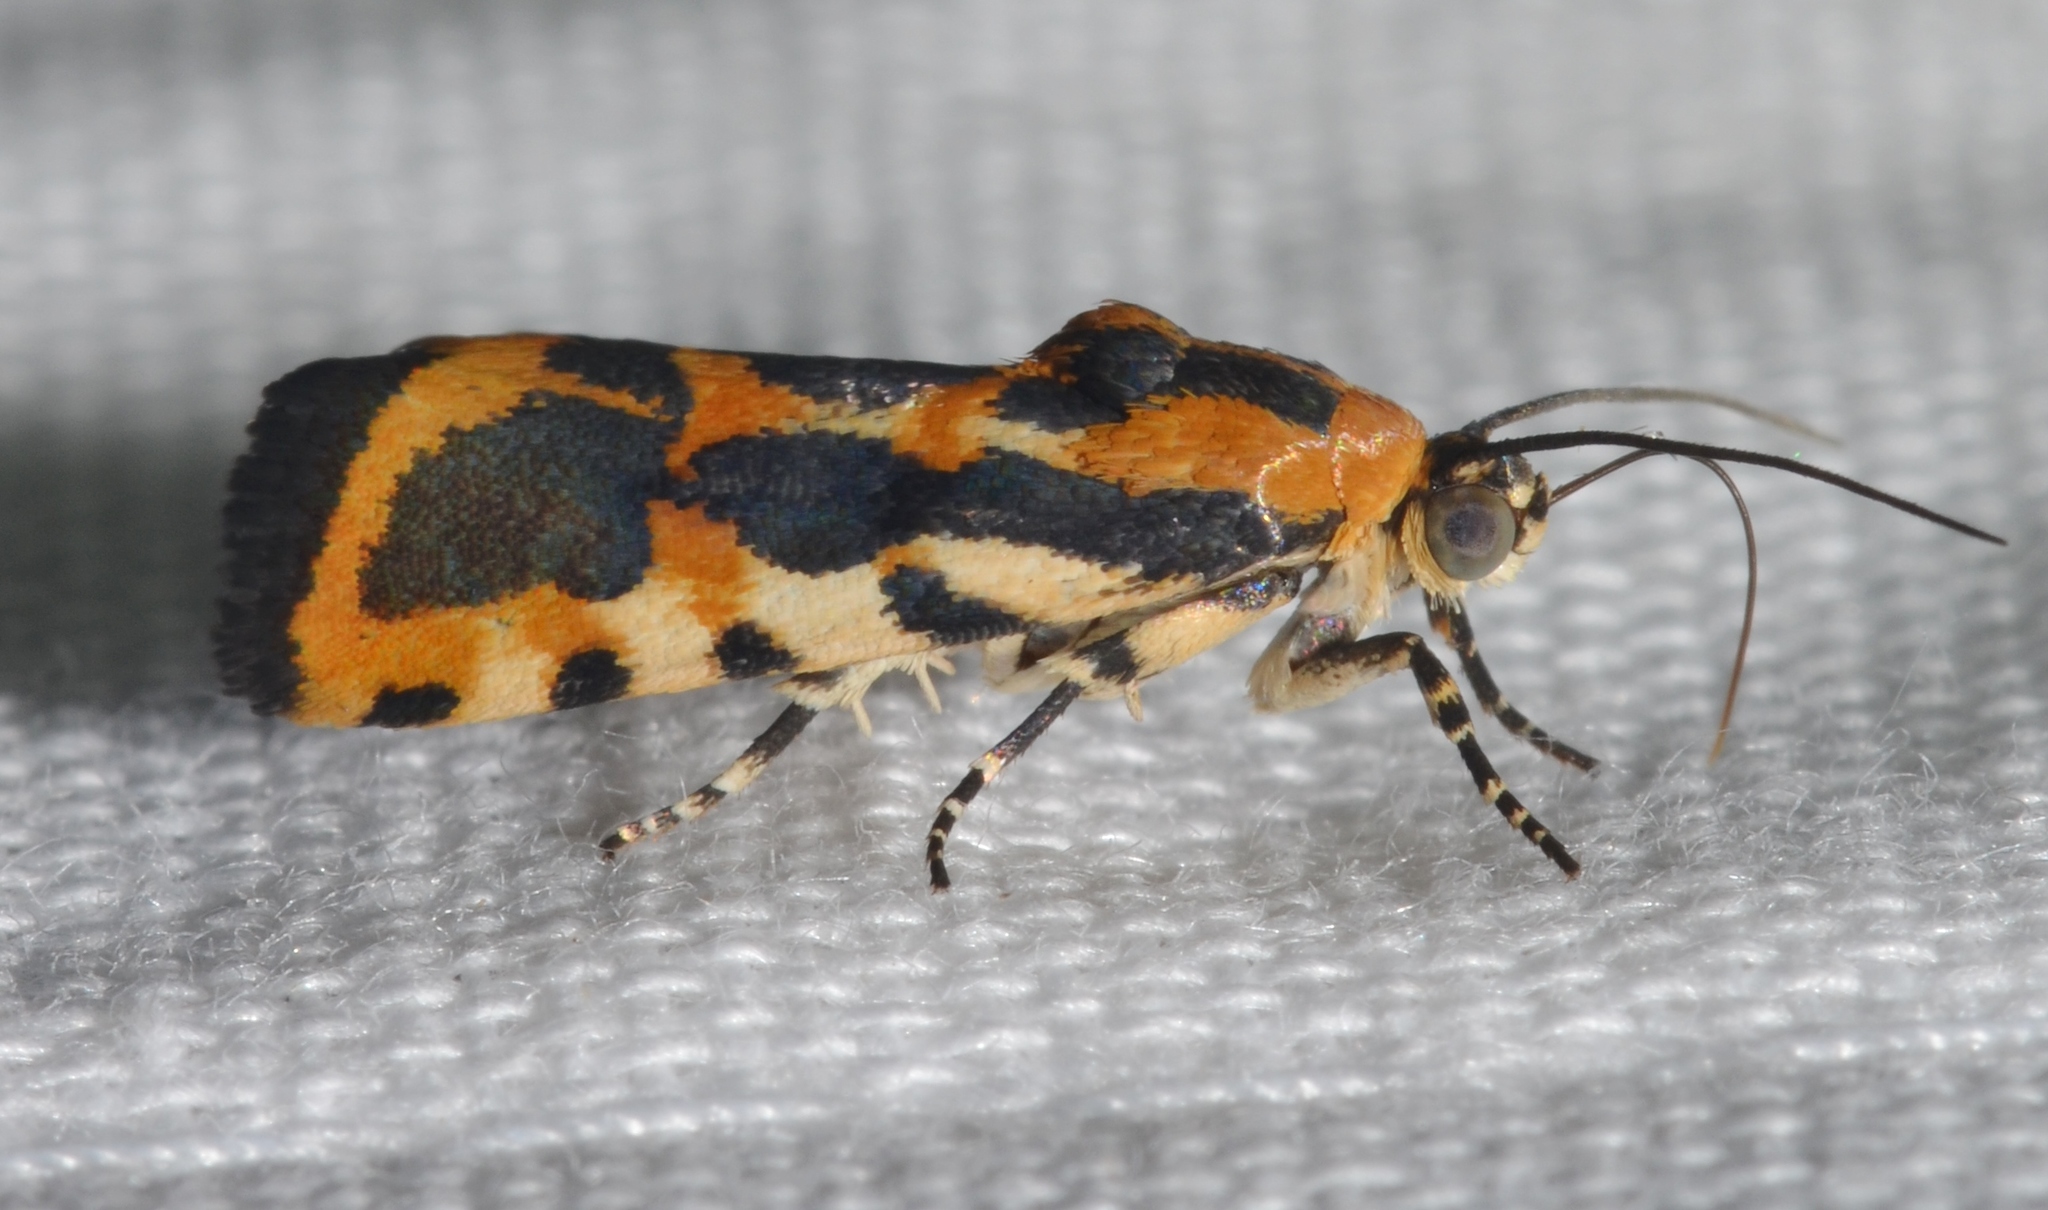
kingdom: Animalia
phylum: Arthropoda
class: Insecta
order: Lepidoptera
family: Noctuidae
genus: Acontia
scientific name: Acontia leo
